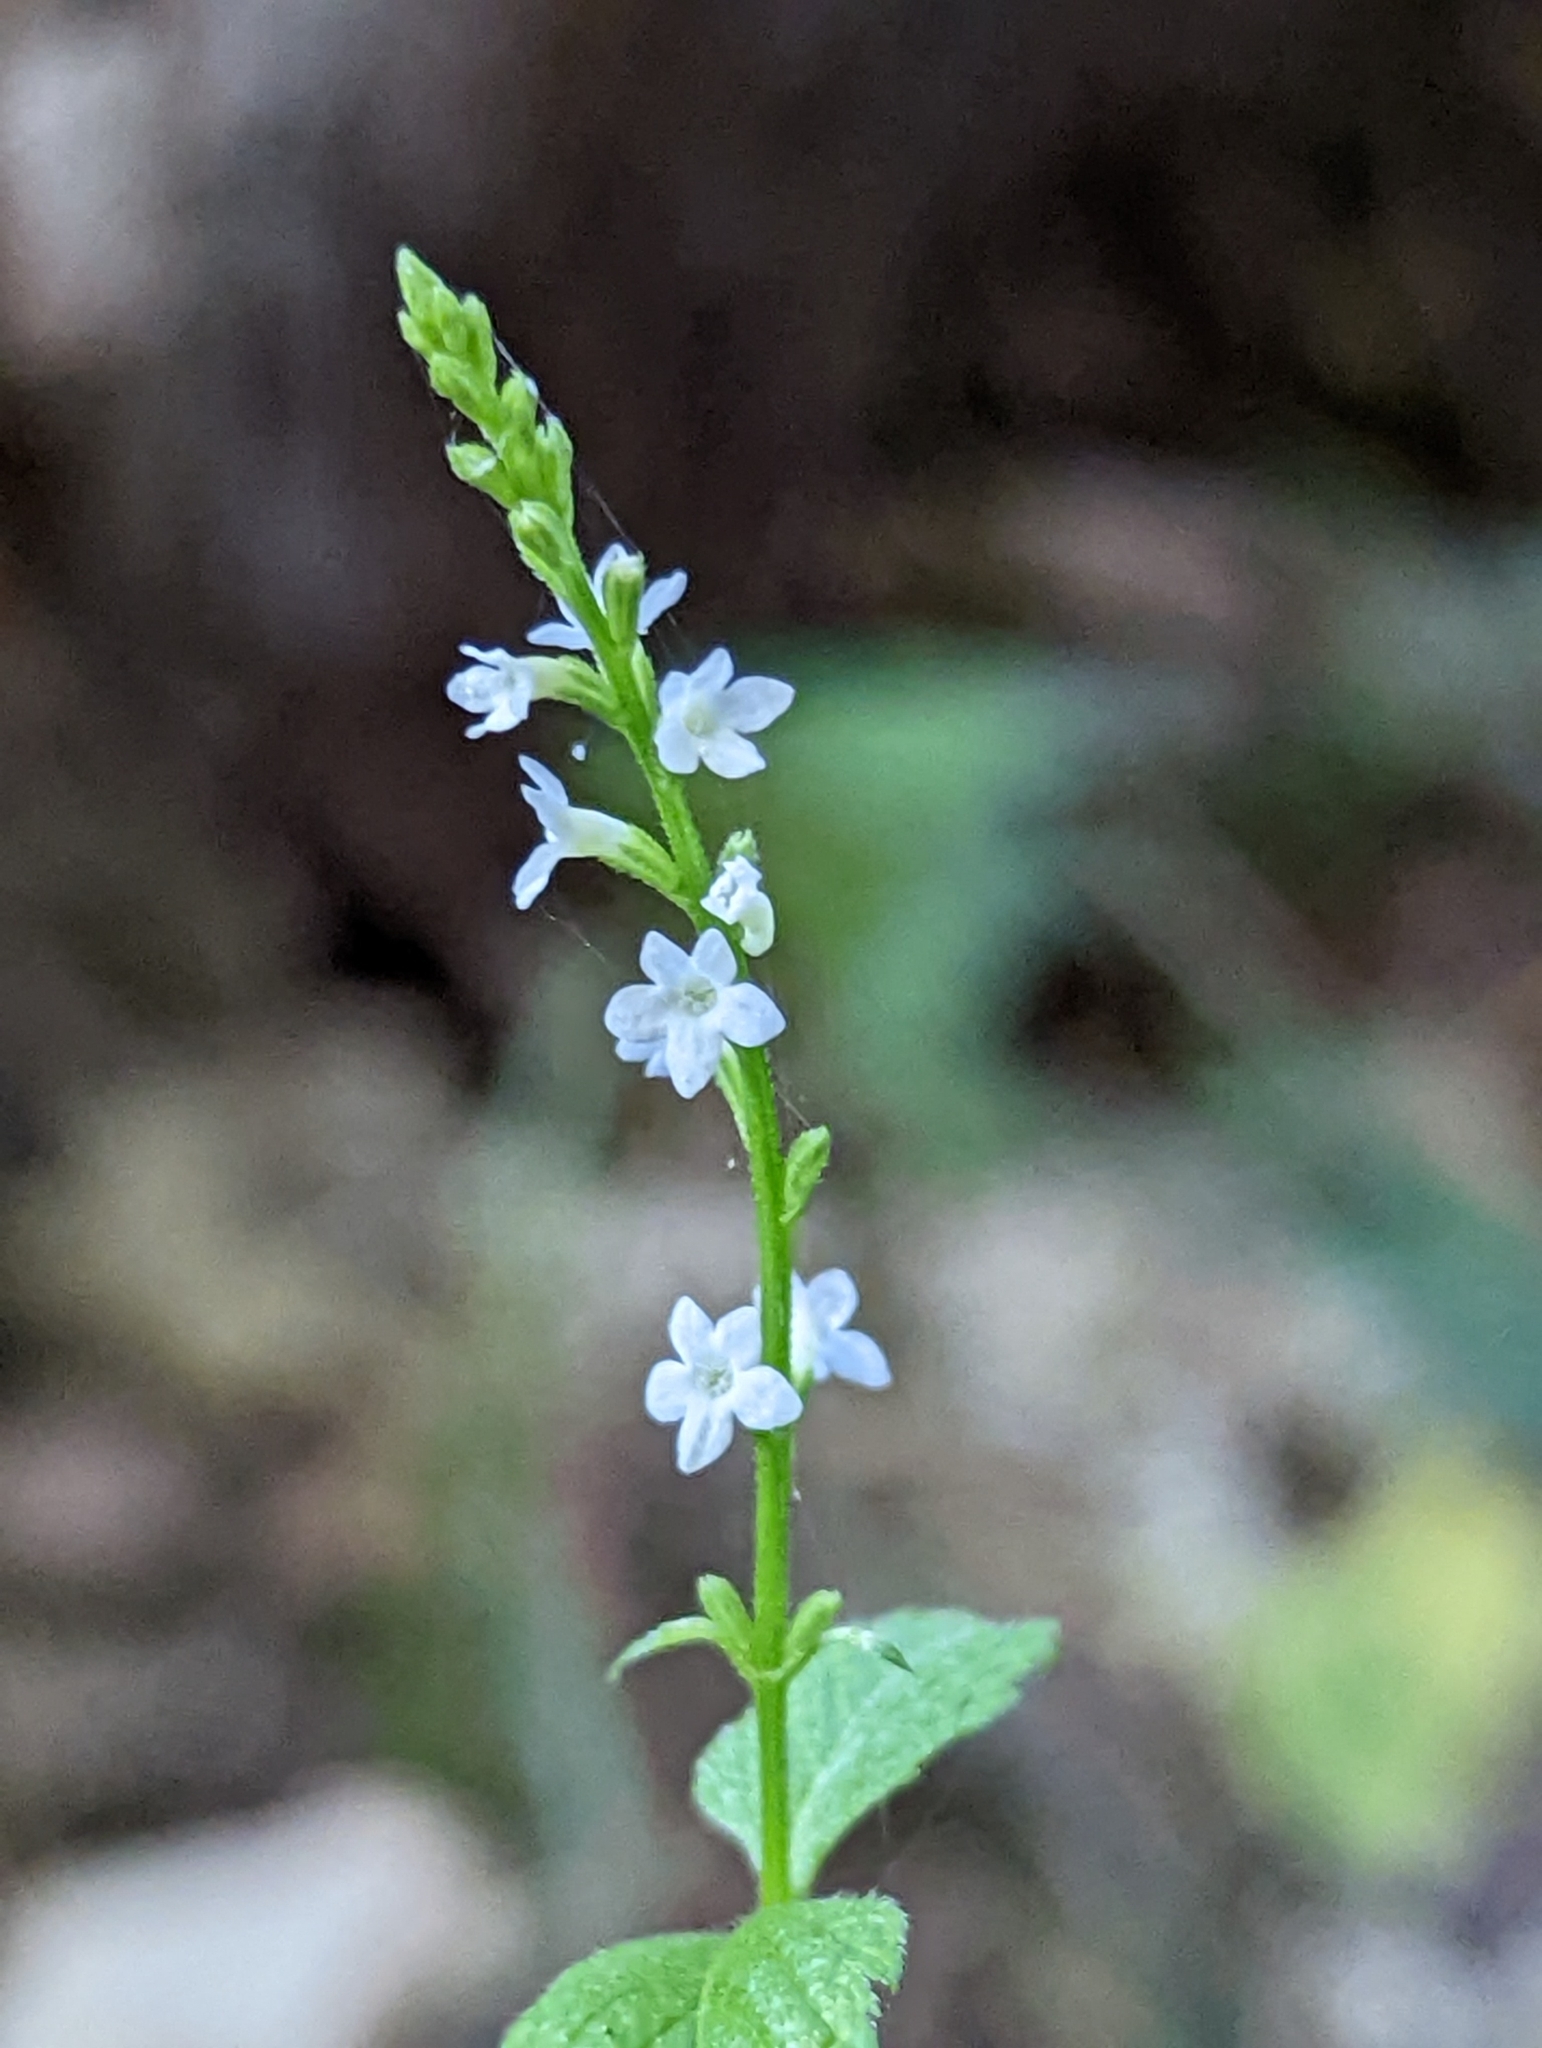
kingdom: Plantae
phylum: Tracheophyta
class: Magnoliopsida
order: Lamiales
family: Verbenaceae
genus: Verbena
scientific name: Verbena urticifolia
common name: Nettle-leaved vervain
